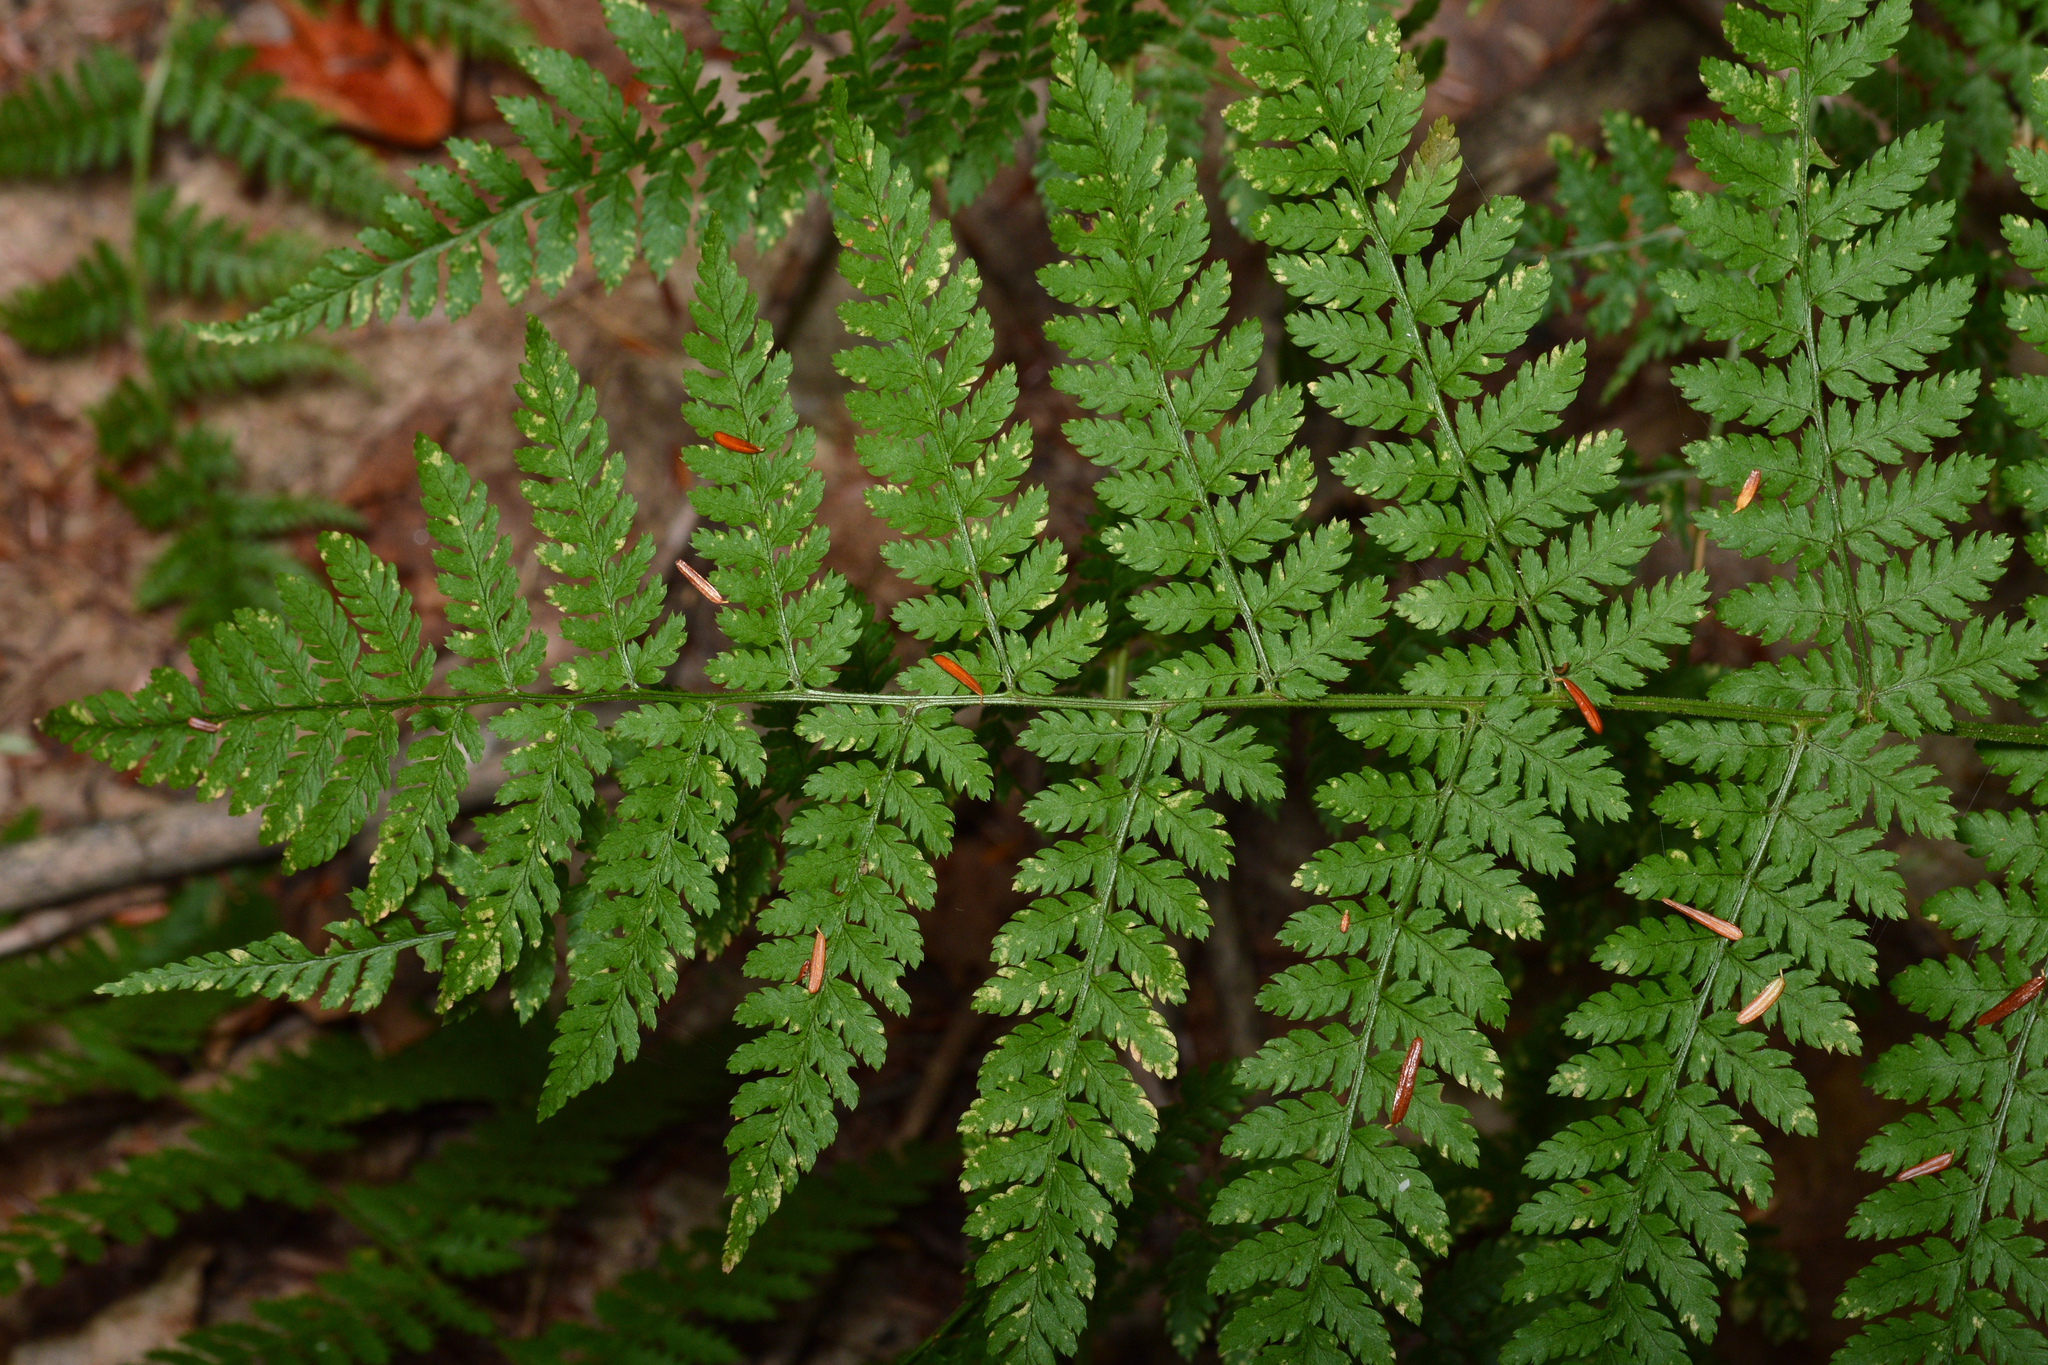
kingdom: Plantae
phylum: Tracheophyta
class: Polypodiopsida
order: Polypodiales
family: Dryopteridaceae
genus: Dryopteris
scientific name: Dryopteris intermedia
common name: Evergreen wood fern
